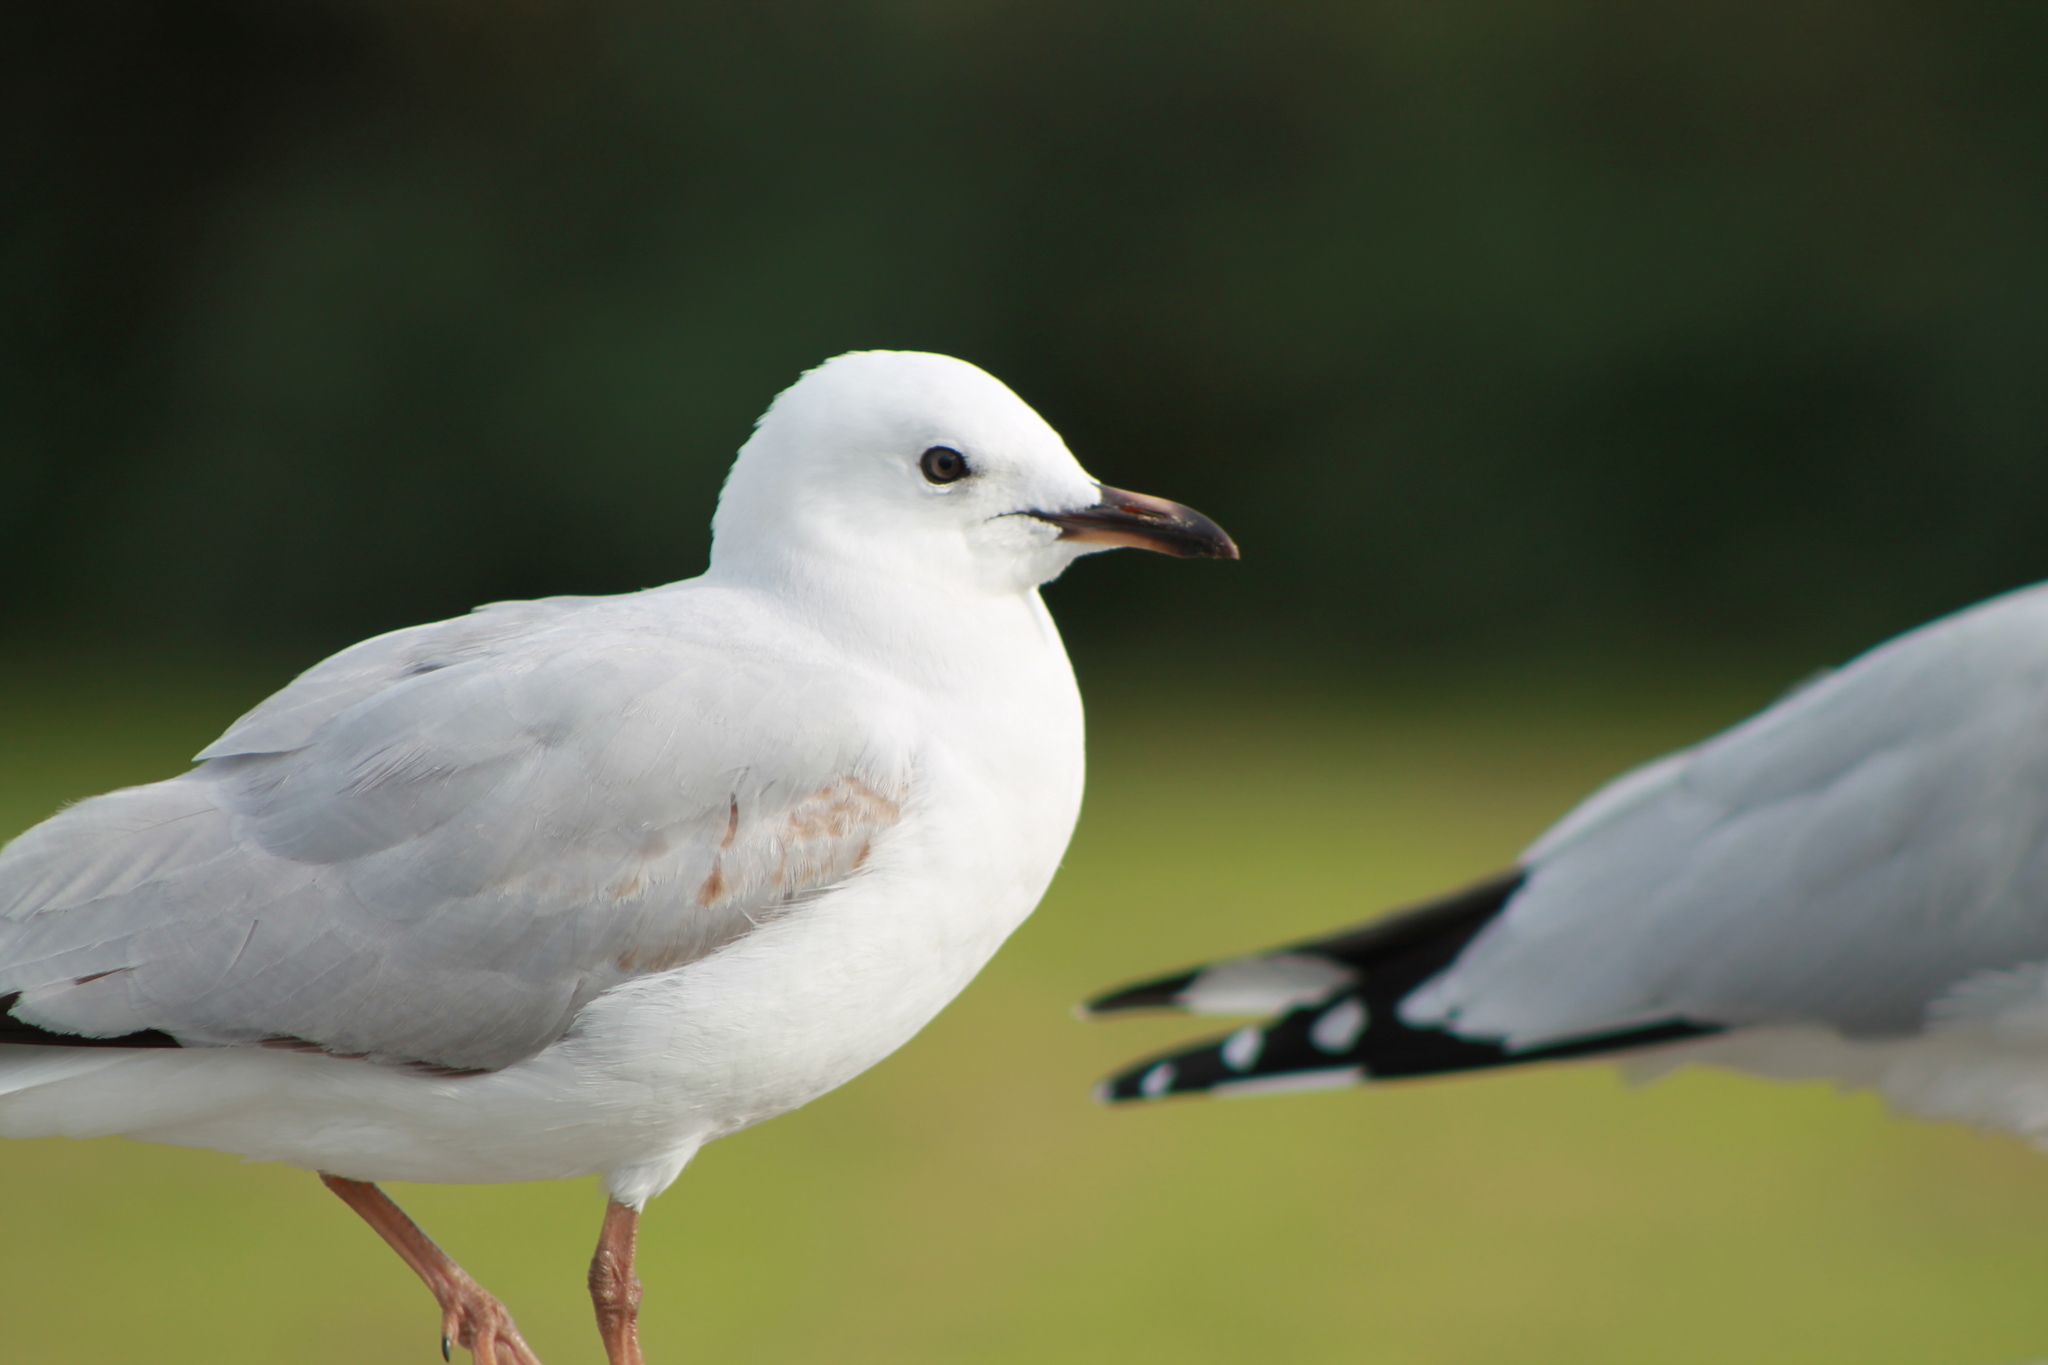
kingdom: Animalia
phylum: Chordata
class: Aves
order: Charadriiformes
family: Laridae
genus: Chroicocephalus
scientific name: Chroicocephalus novaehollandiae
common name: Silver gull
